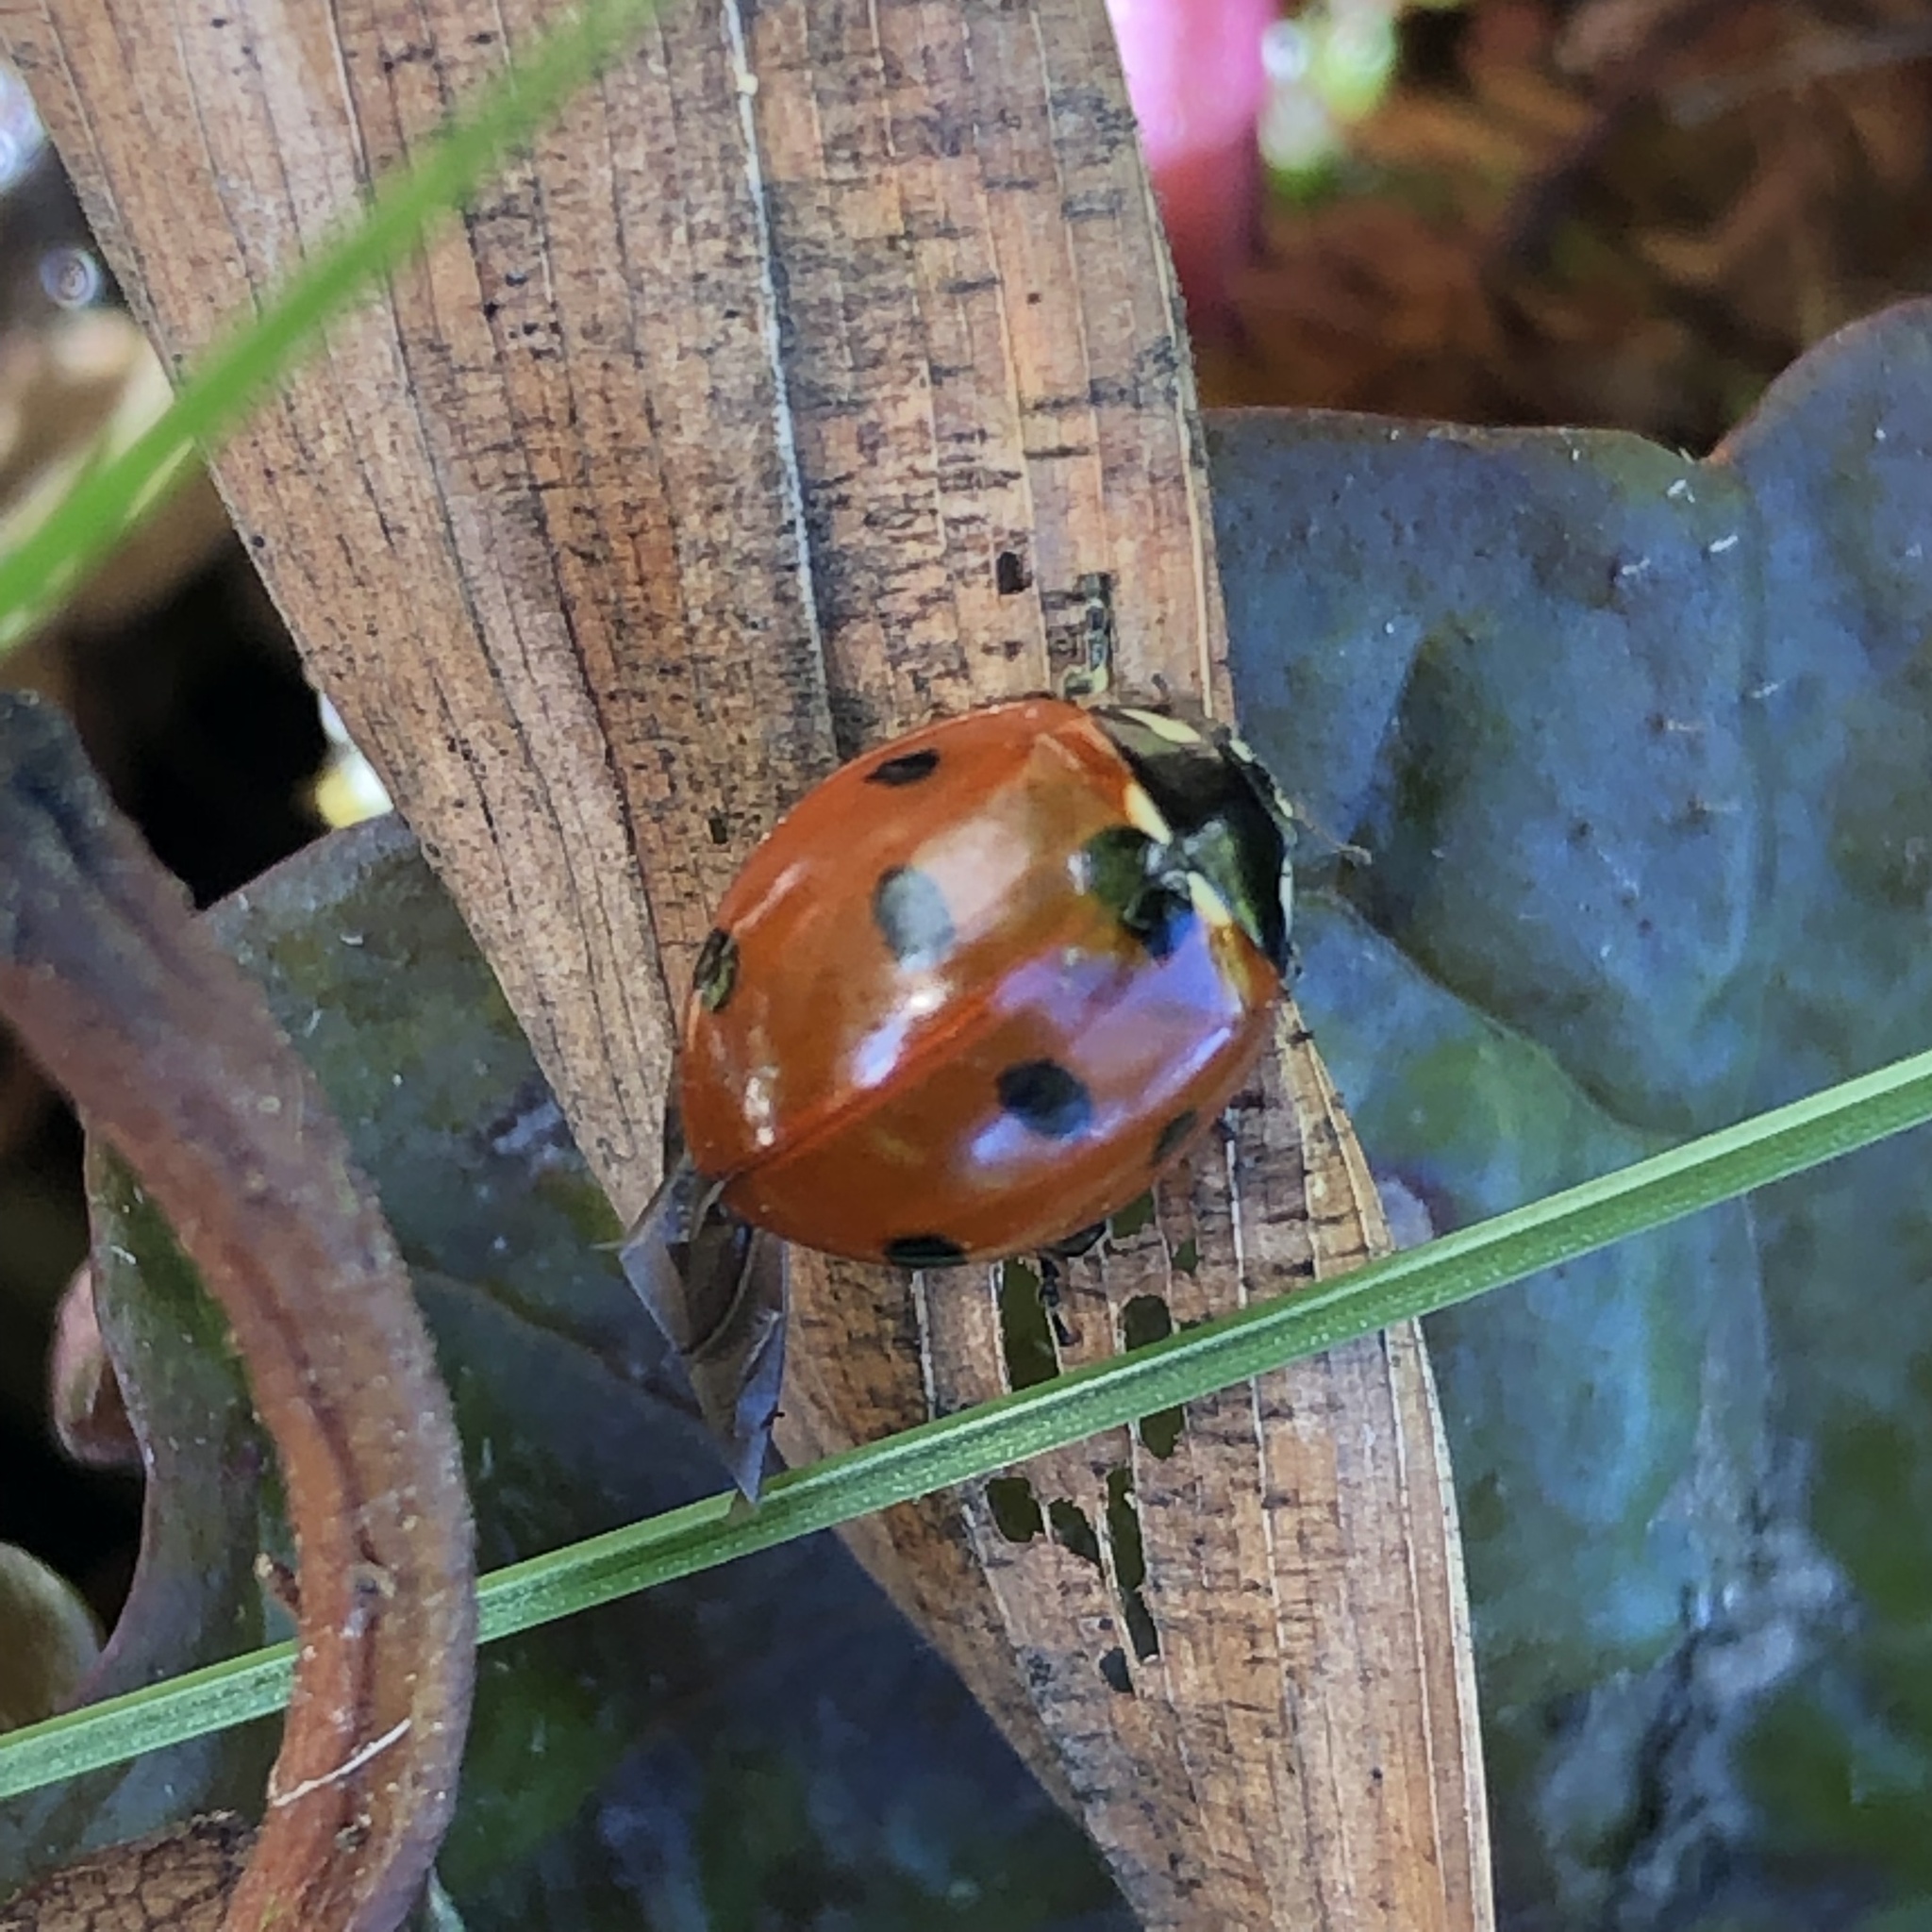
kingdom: Animalia
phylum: Arthropoda
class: Insecta
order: Coleoptera
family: Coccinellidae
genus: Coccinella
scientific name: Coccinella septempunctata
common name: Sevenspotted lady beetle
